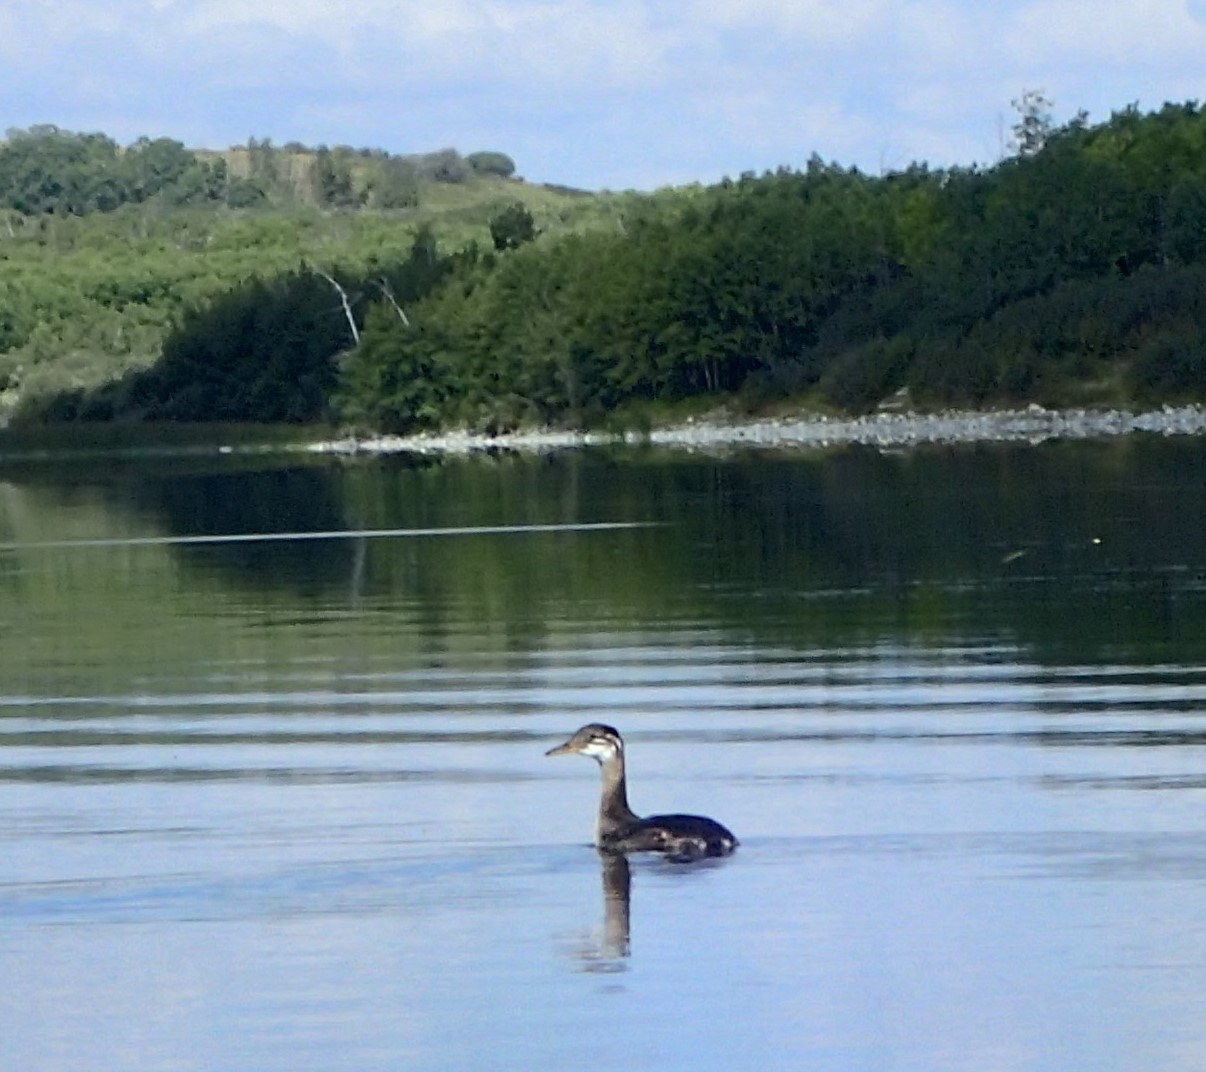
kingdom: Animalia
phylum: Chordata
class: Aves
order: Podicipediformes
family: Podicipedidae
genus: Podiceps
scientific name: Podiceps grisegena
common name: Red-necked grebe
